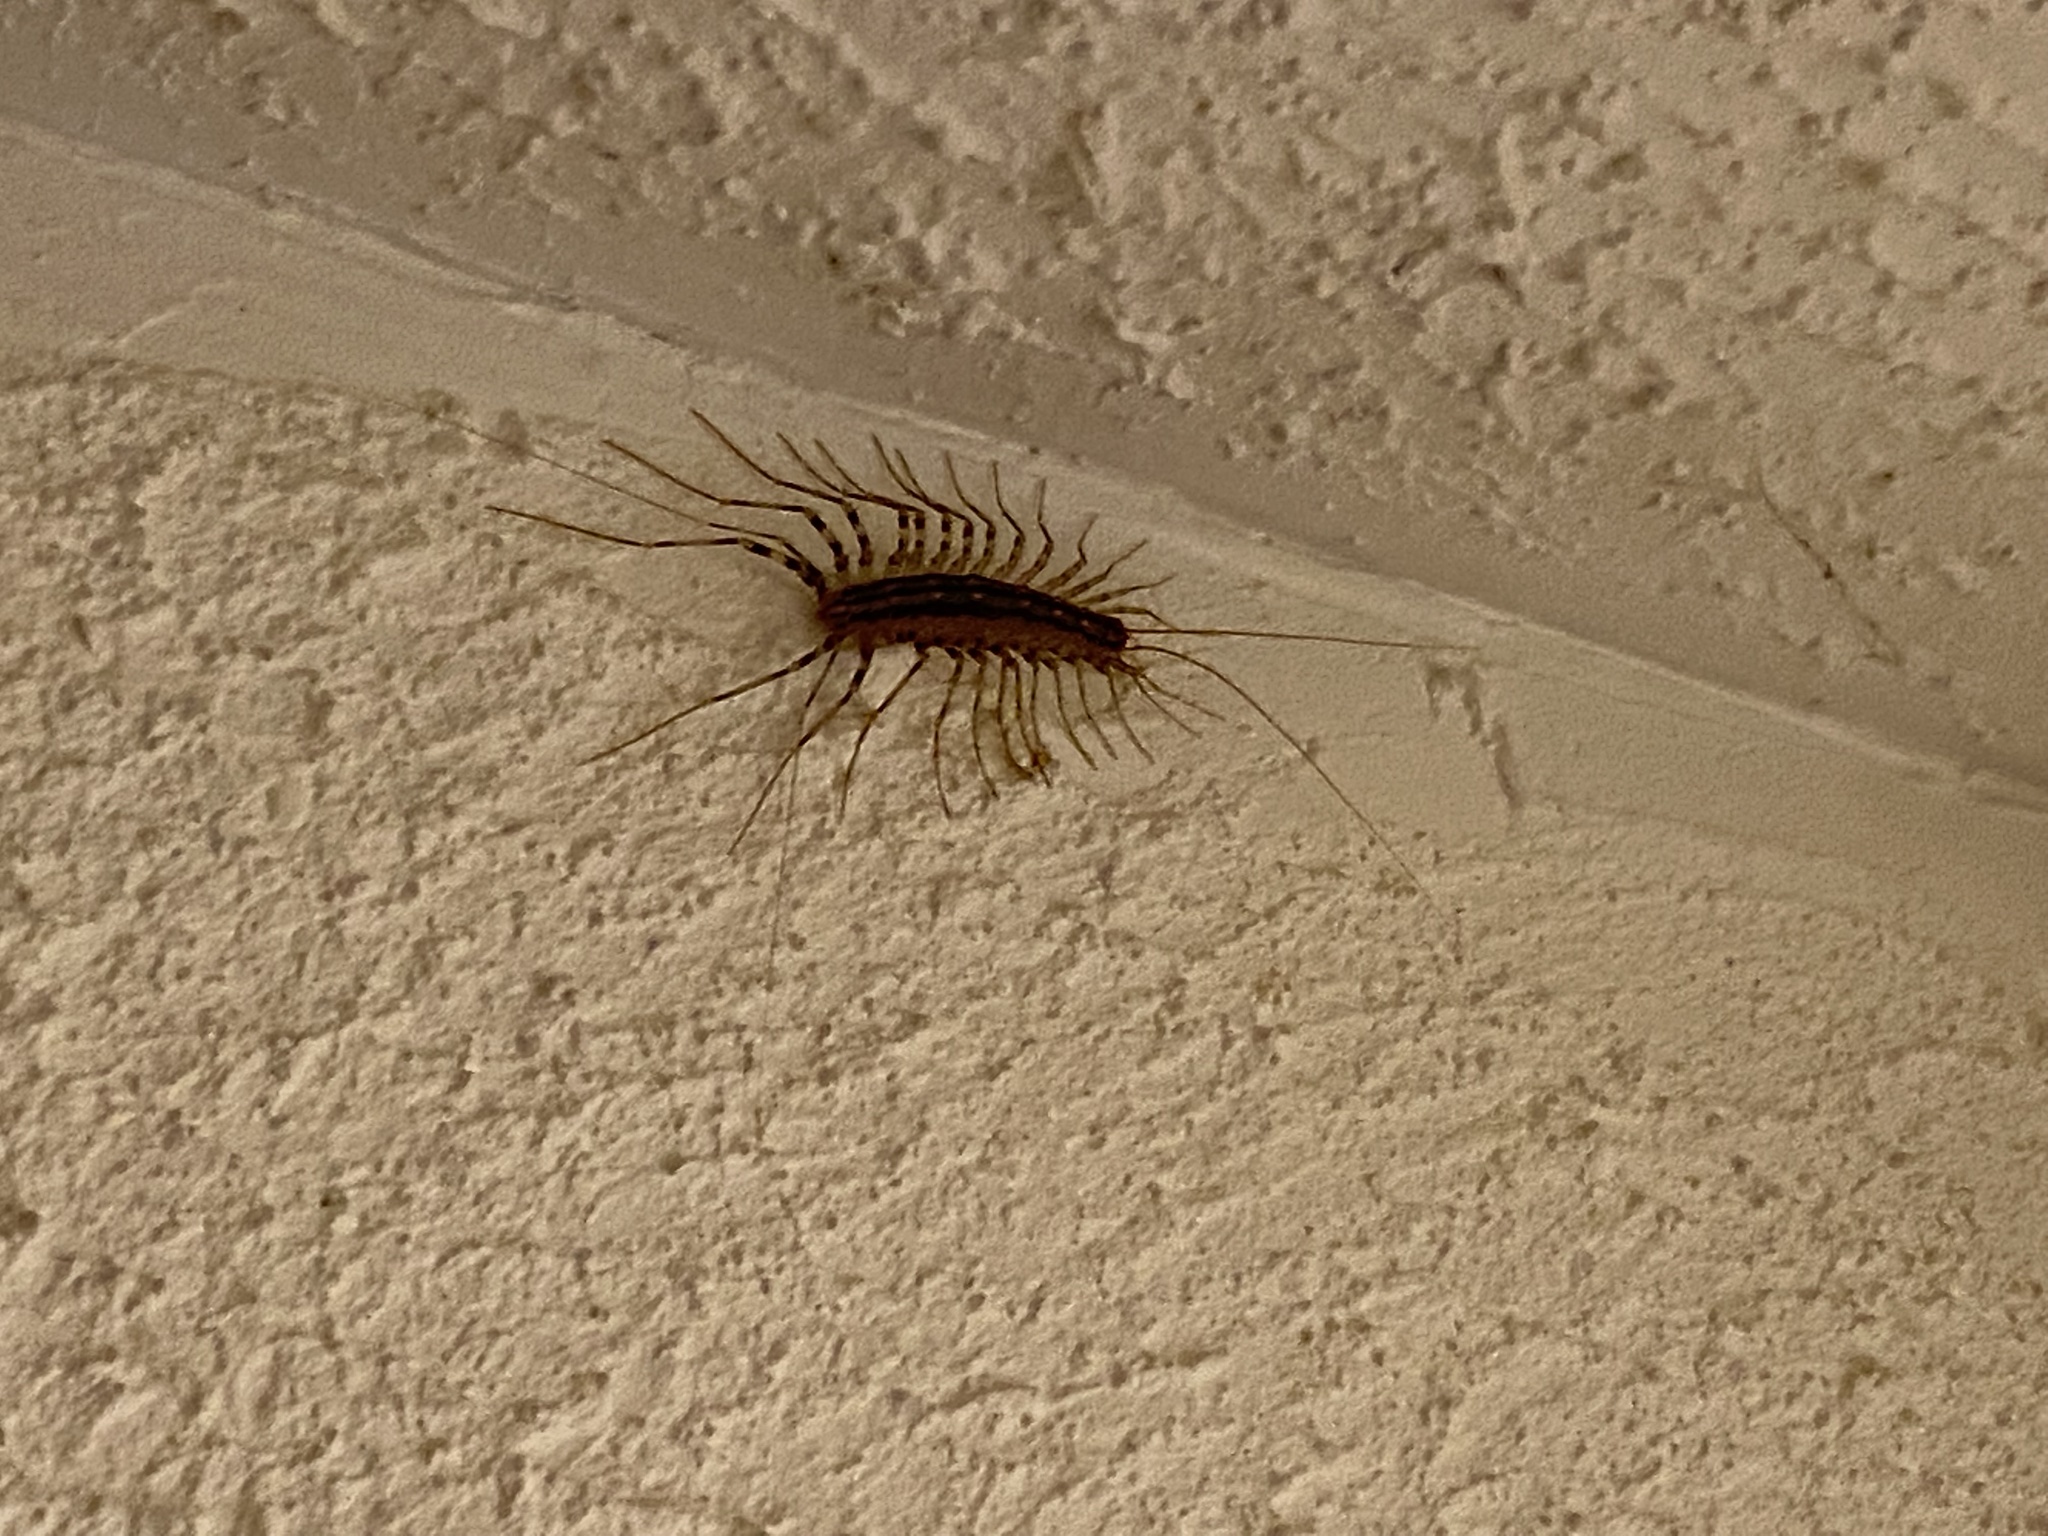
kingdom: Animalia
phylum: Arthropoda
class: Chilopoda
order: Scutigeromorpha
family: Scutigeridae
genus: Scutigera
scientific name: Scutigera coleoptrata
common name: House centipede
